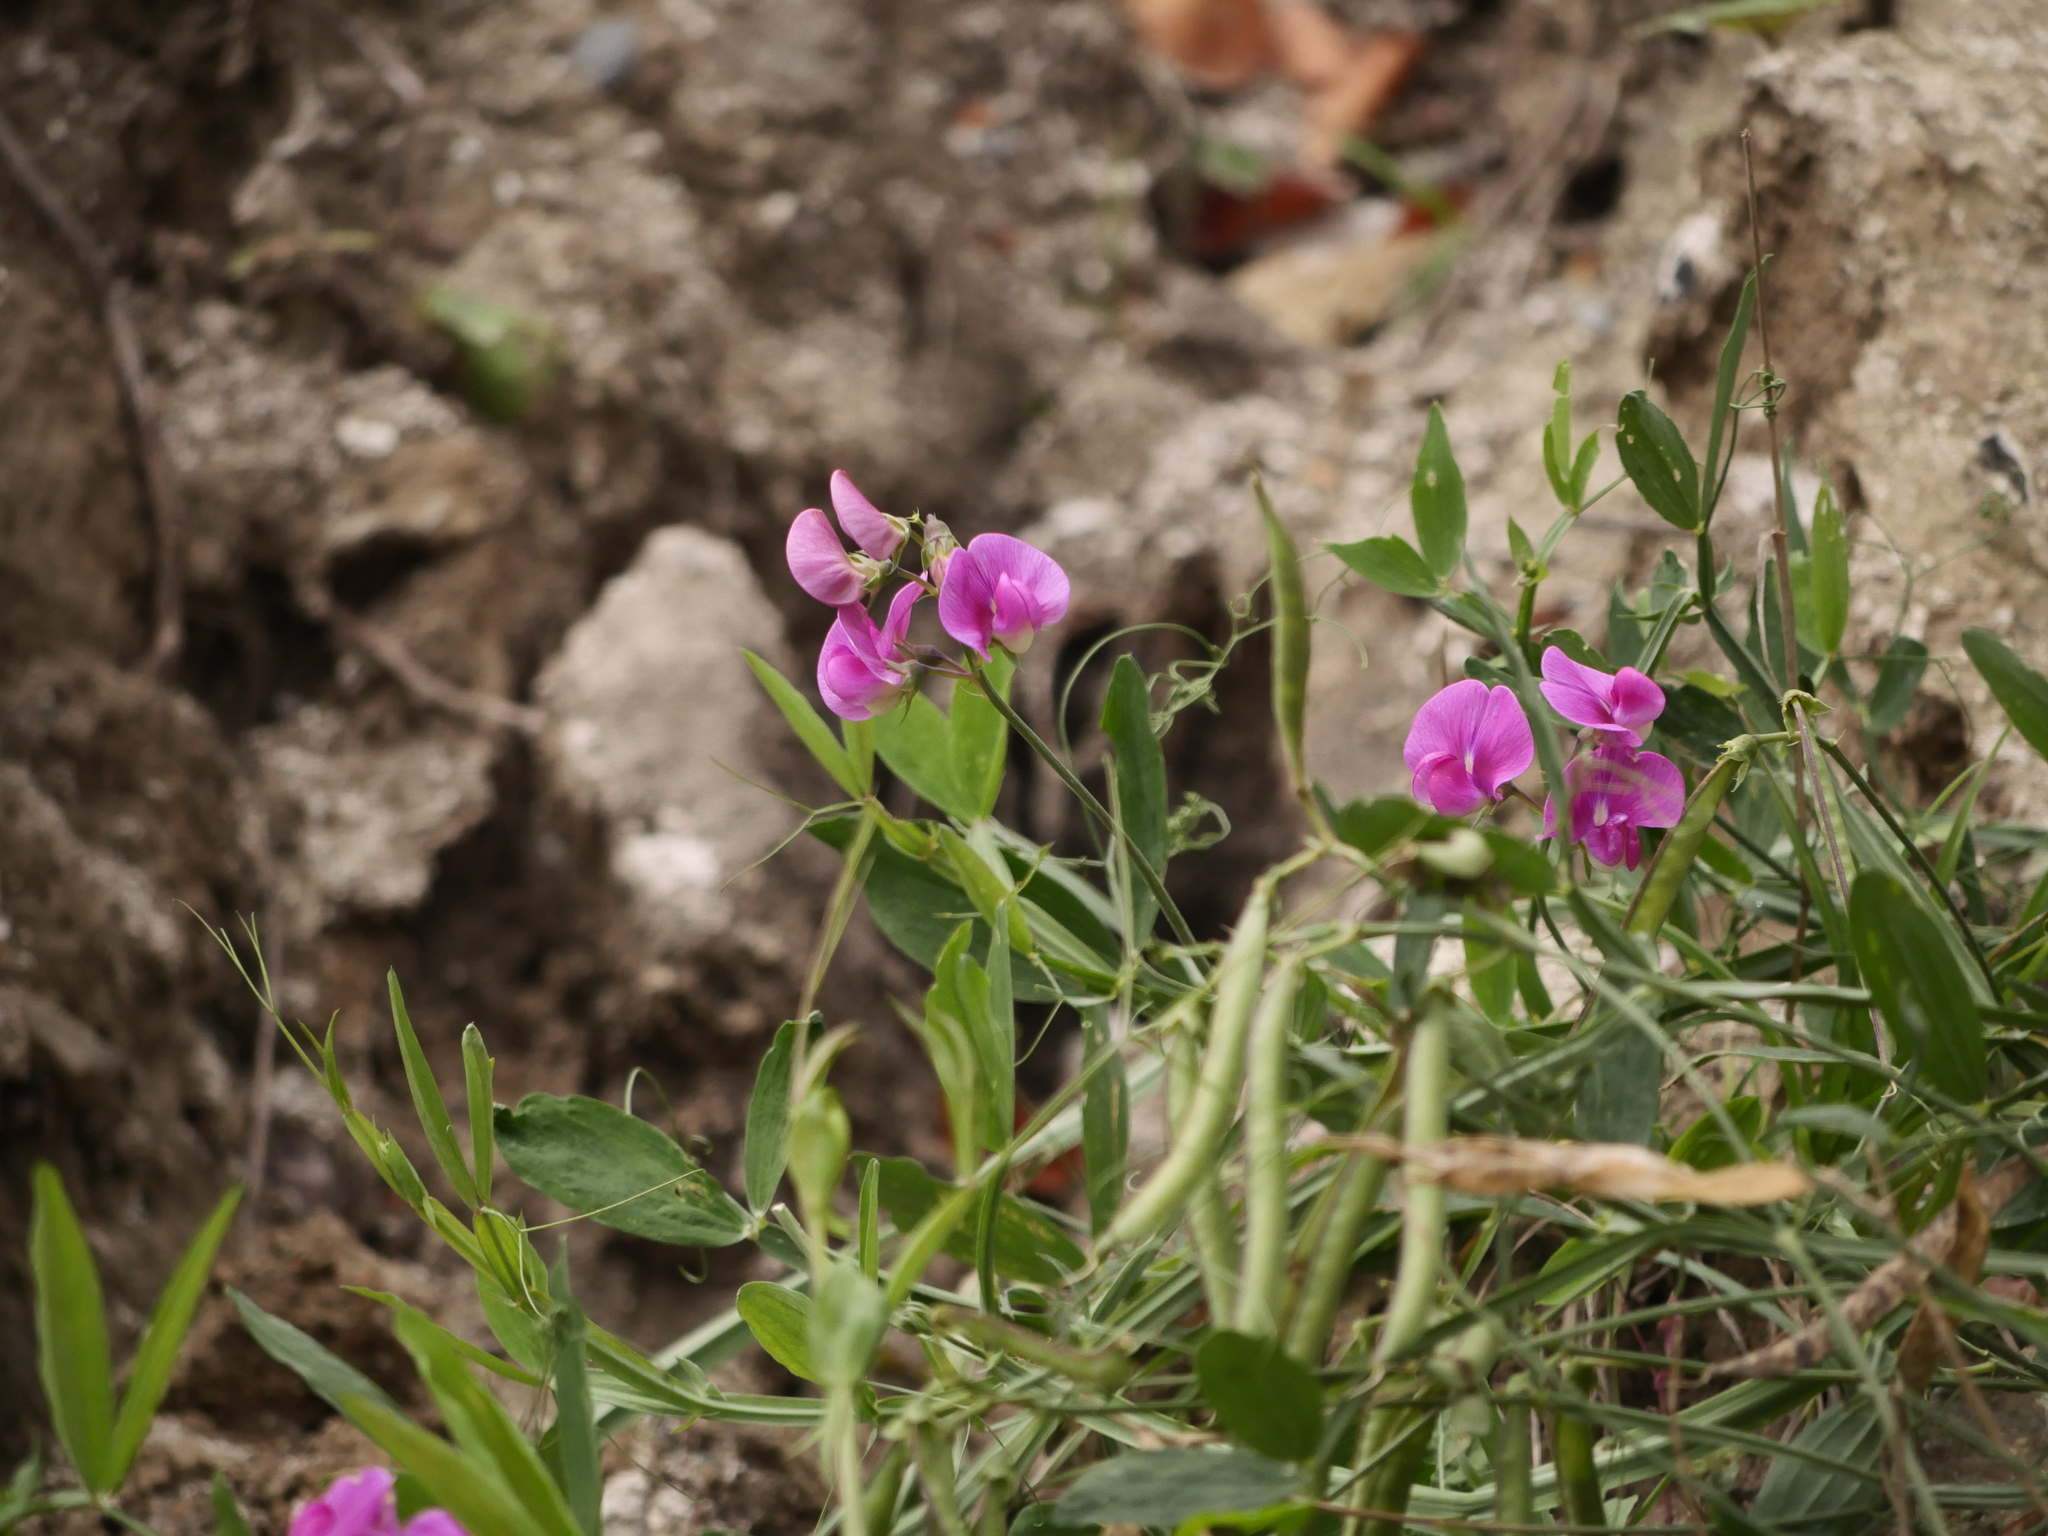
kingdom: Plantae
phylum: Tracheophyta
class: Magnoliopsida
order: Fabales
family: Fabaceae
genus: Lathyrus
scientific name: Lathyrus latifolius
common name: Perennial pea
